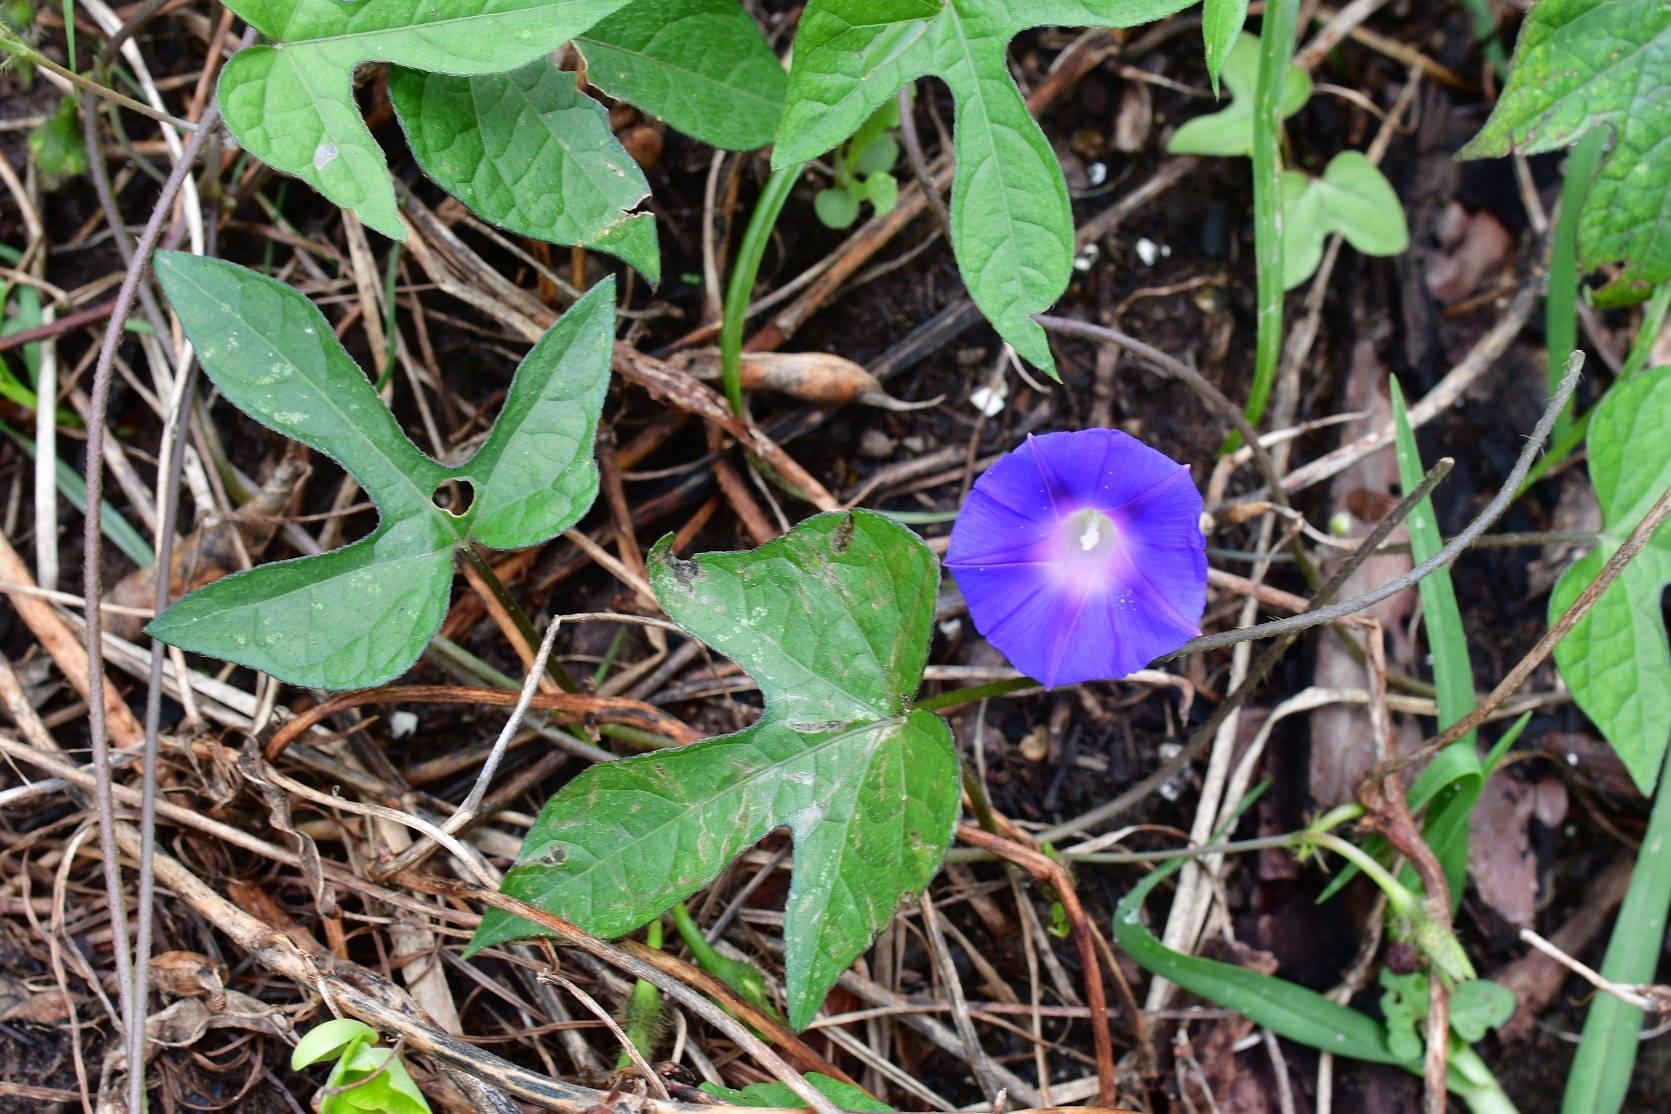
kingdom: Plantae
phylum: Tracheophyta
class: Magnoliopsida
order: Solanales
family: Convolvulaceae
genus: Ipomoea
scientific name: Ipomoea purpurea
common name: Common morning-glory
